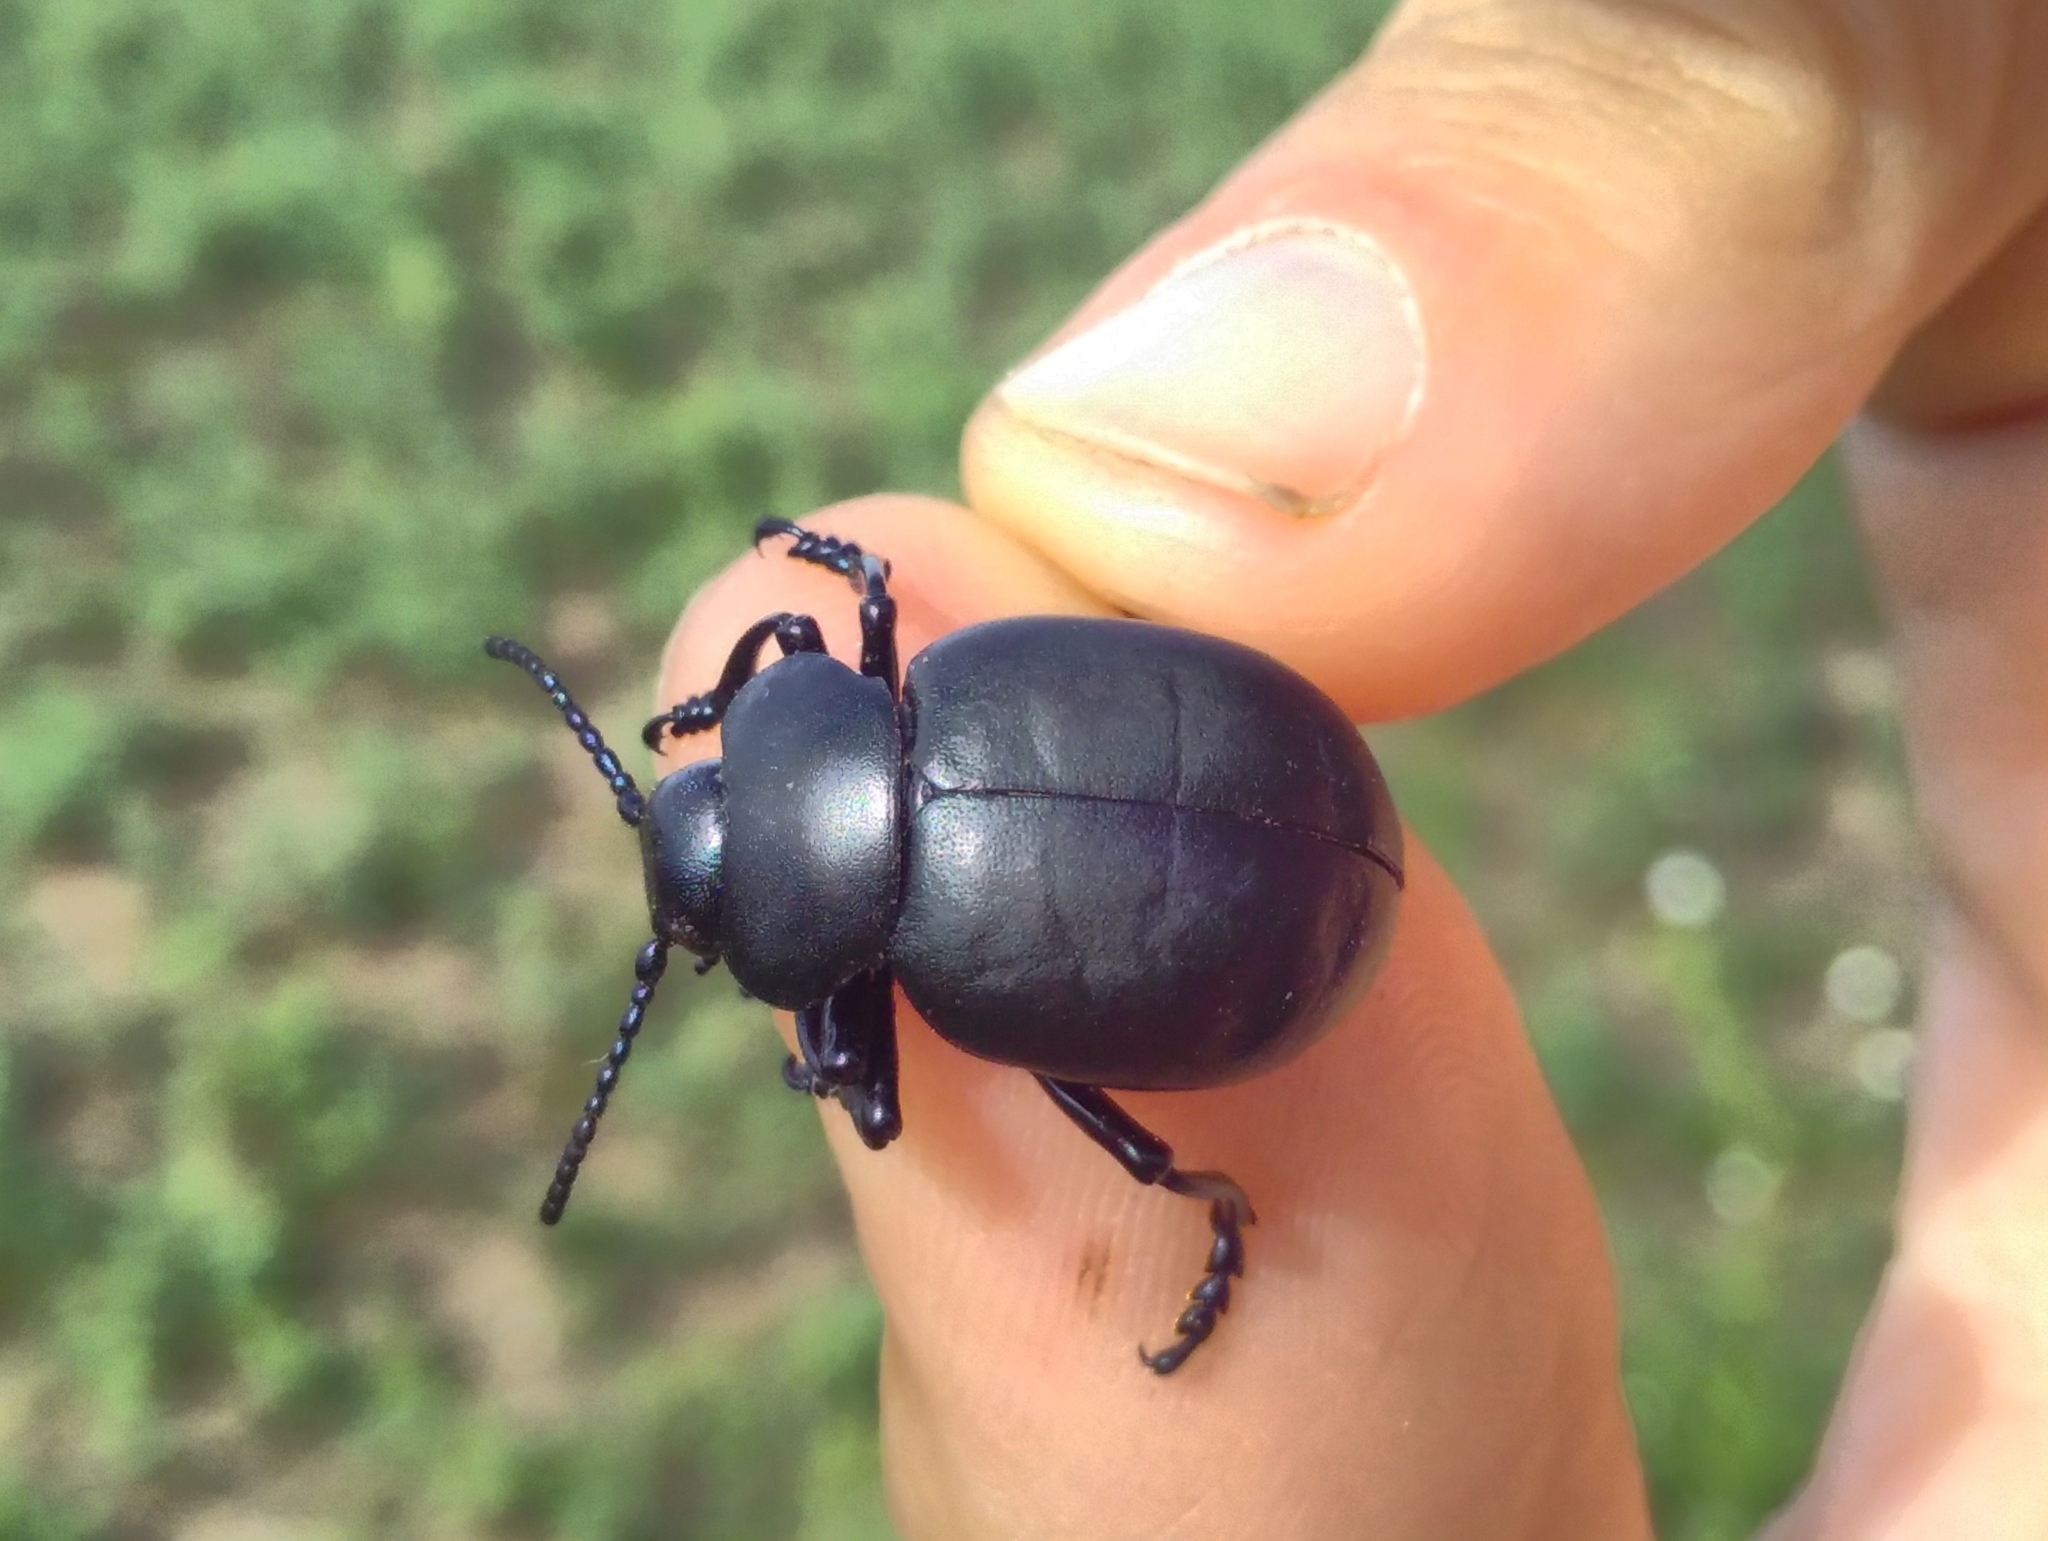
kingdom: Animalia
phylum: Arthropoda
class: Insecta
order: Coleoptera
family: Chrysomelidae
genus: Timarcha
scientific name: Timarcha tenebricosa
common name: Bloody-nosed beetle
